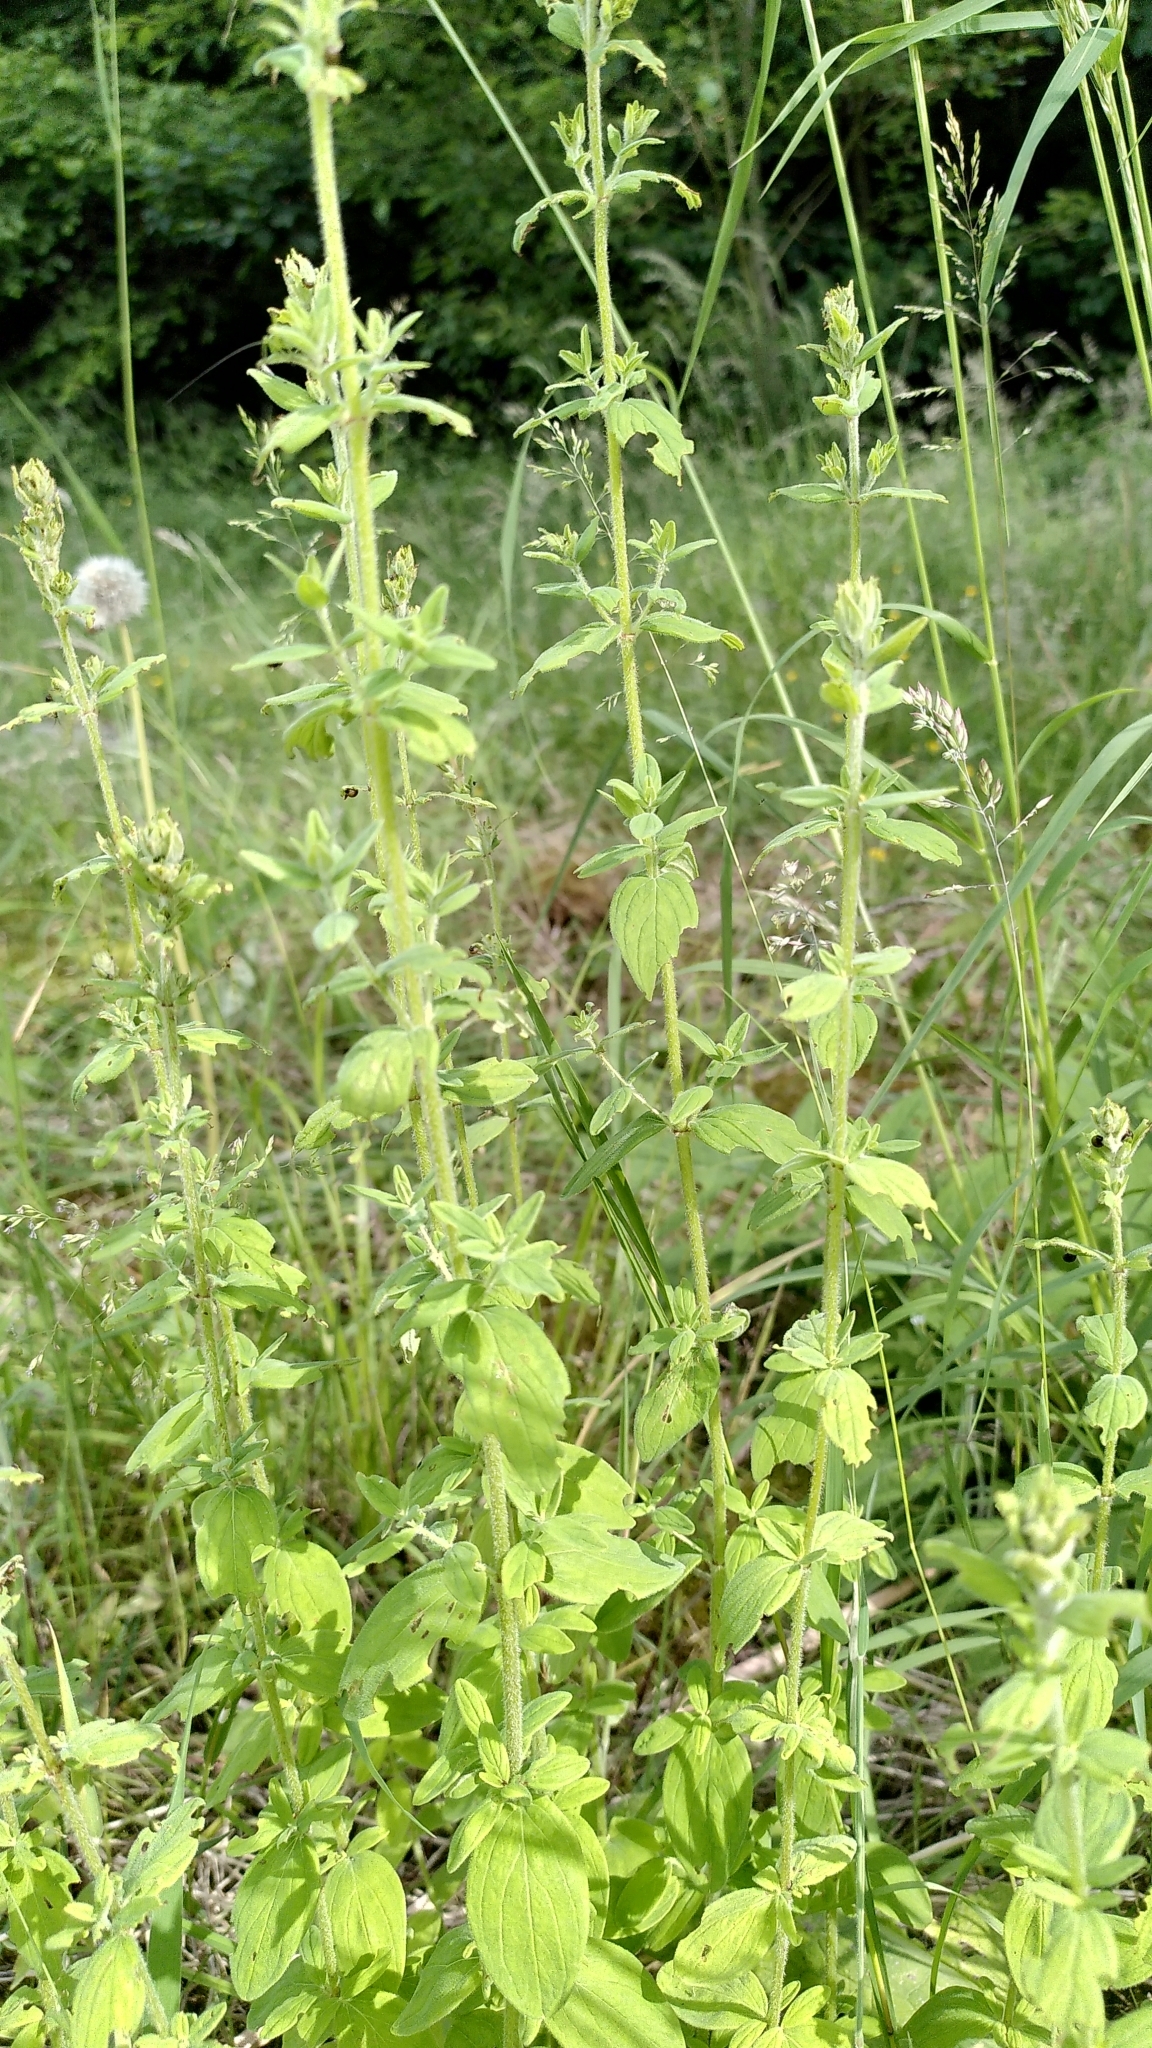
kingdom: Plantae
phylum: Tracheophyta
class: Magnoliopsida
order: Malpighiales
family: Hypericaceae
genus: Hypericum
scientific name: Hypericum hirsutum
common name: Hairy st. john's-wort
